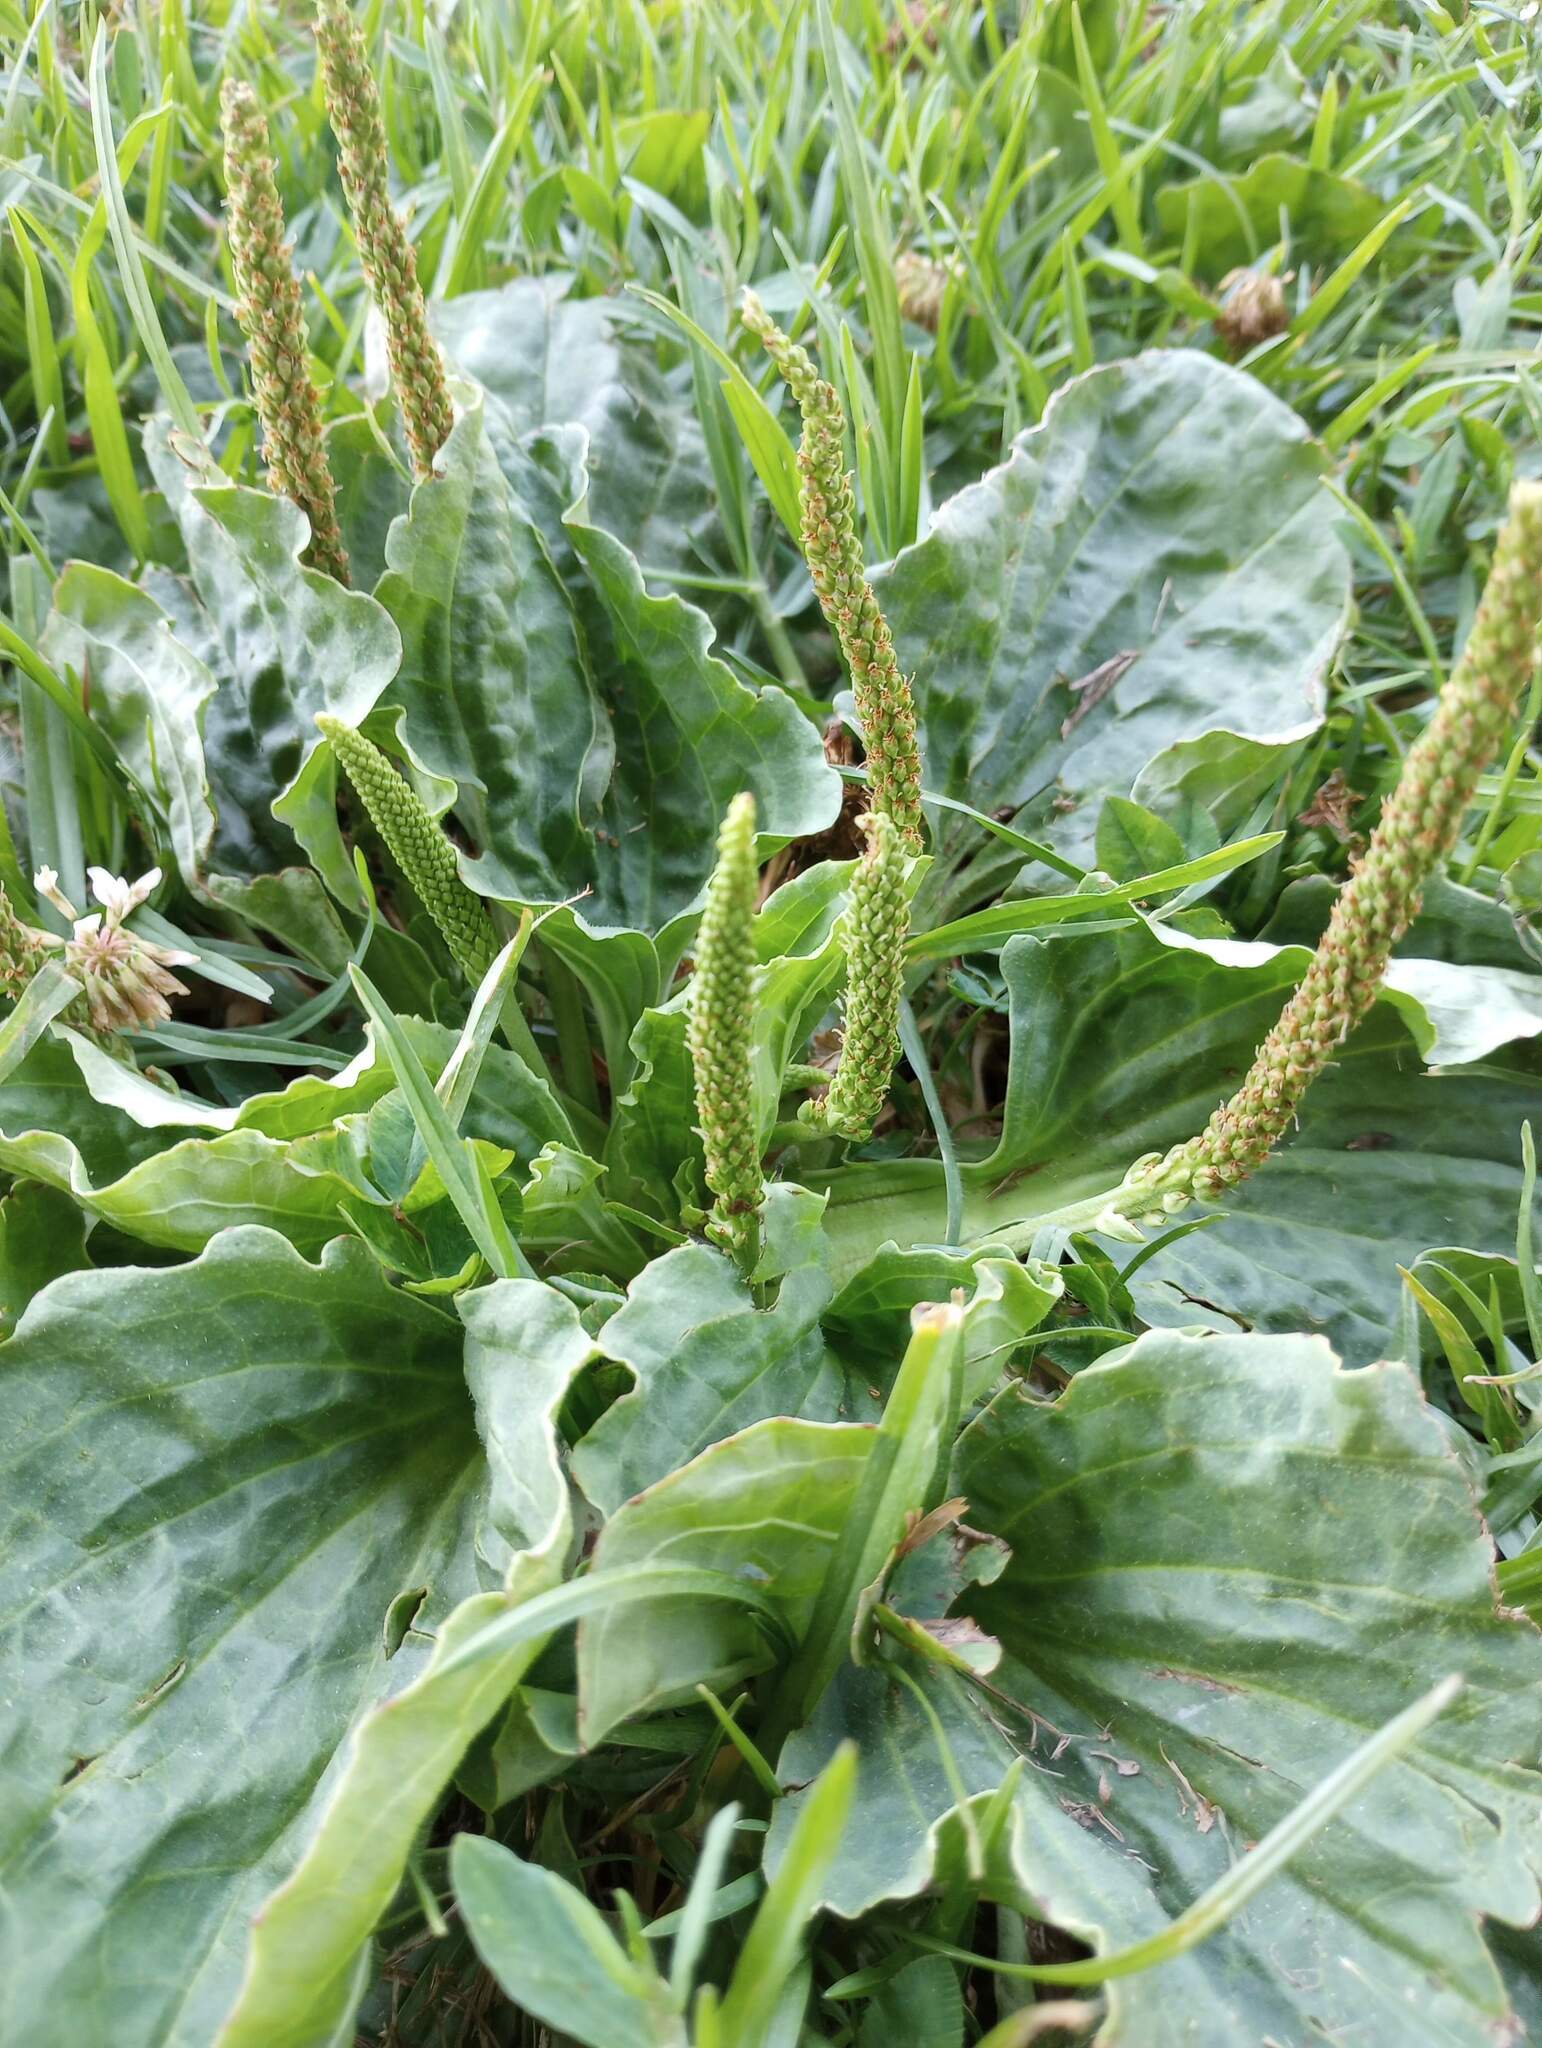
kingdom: Plantae
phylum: Tracheophyta
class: Magnoliopsida
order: Lamiales
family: Plantaginaceae
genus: Plantago
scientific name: Plantago major
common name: Common plantain
